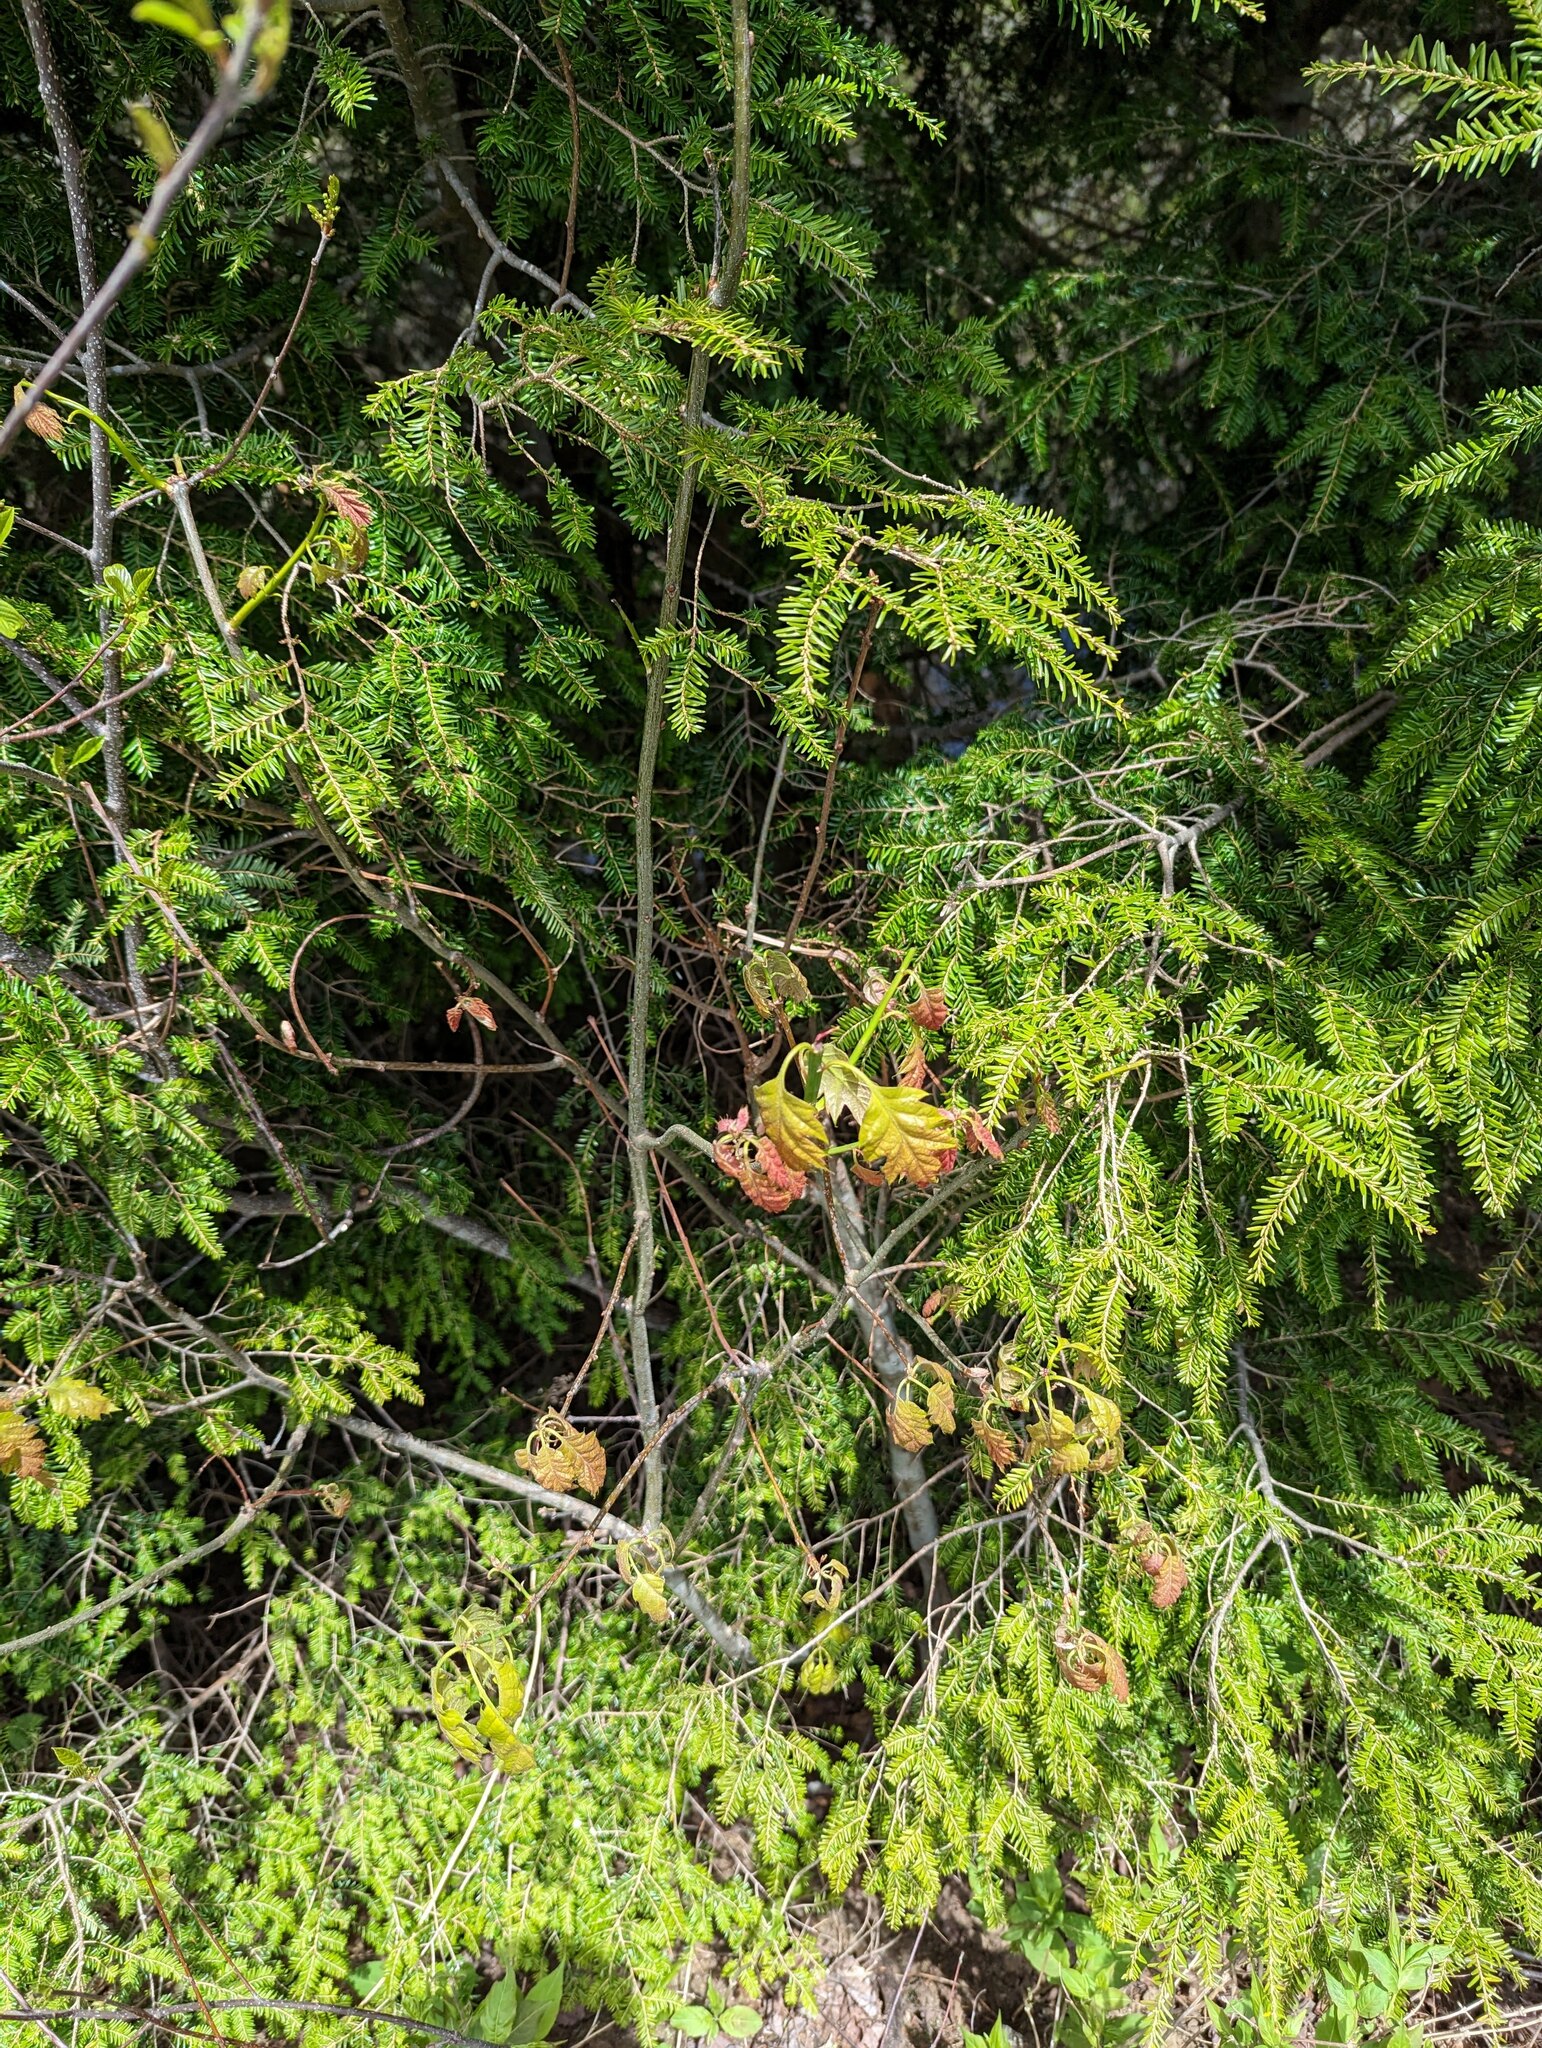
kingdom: Plantae
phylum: Tracheophyta
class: Magnoliopsida
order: Fagales
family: Fagaceae
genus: Quercus
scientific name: Quercus rubra
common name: Red oak
